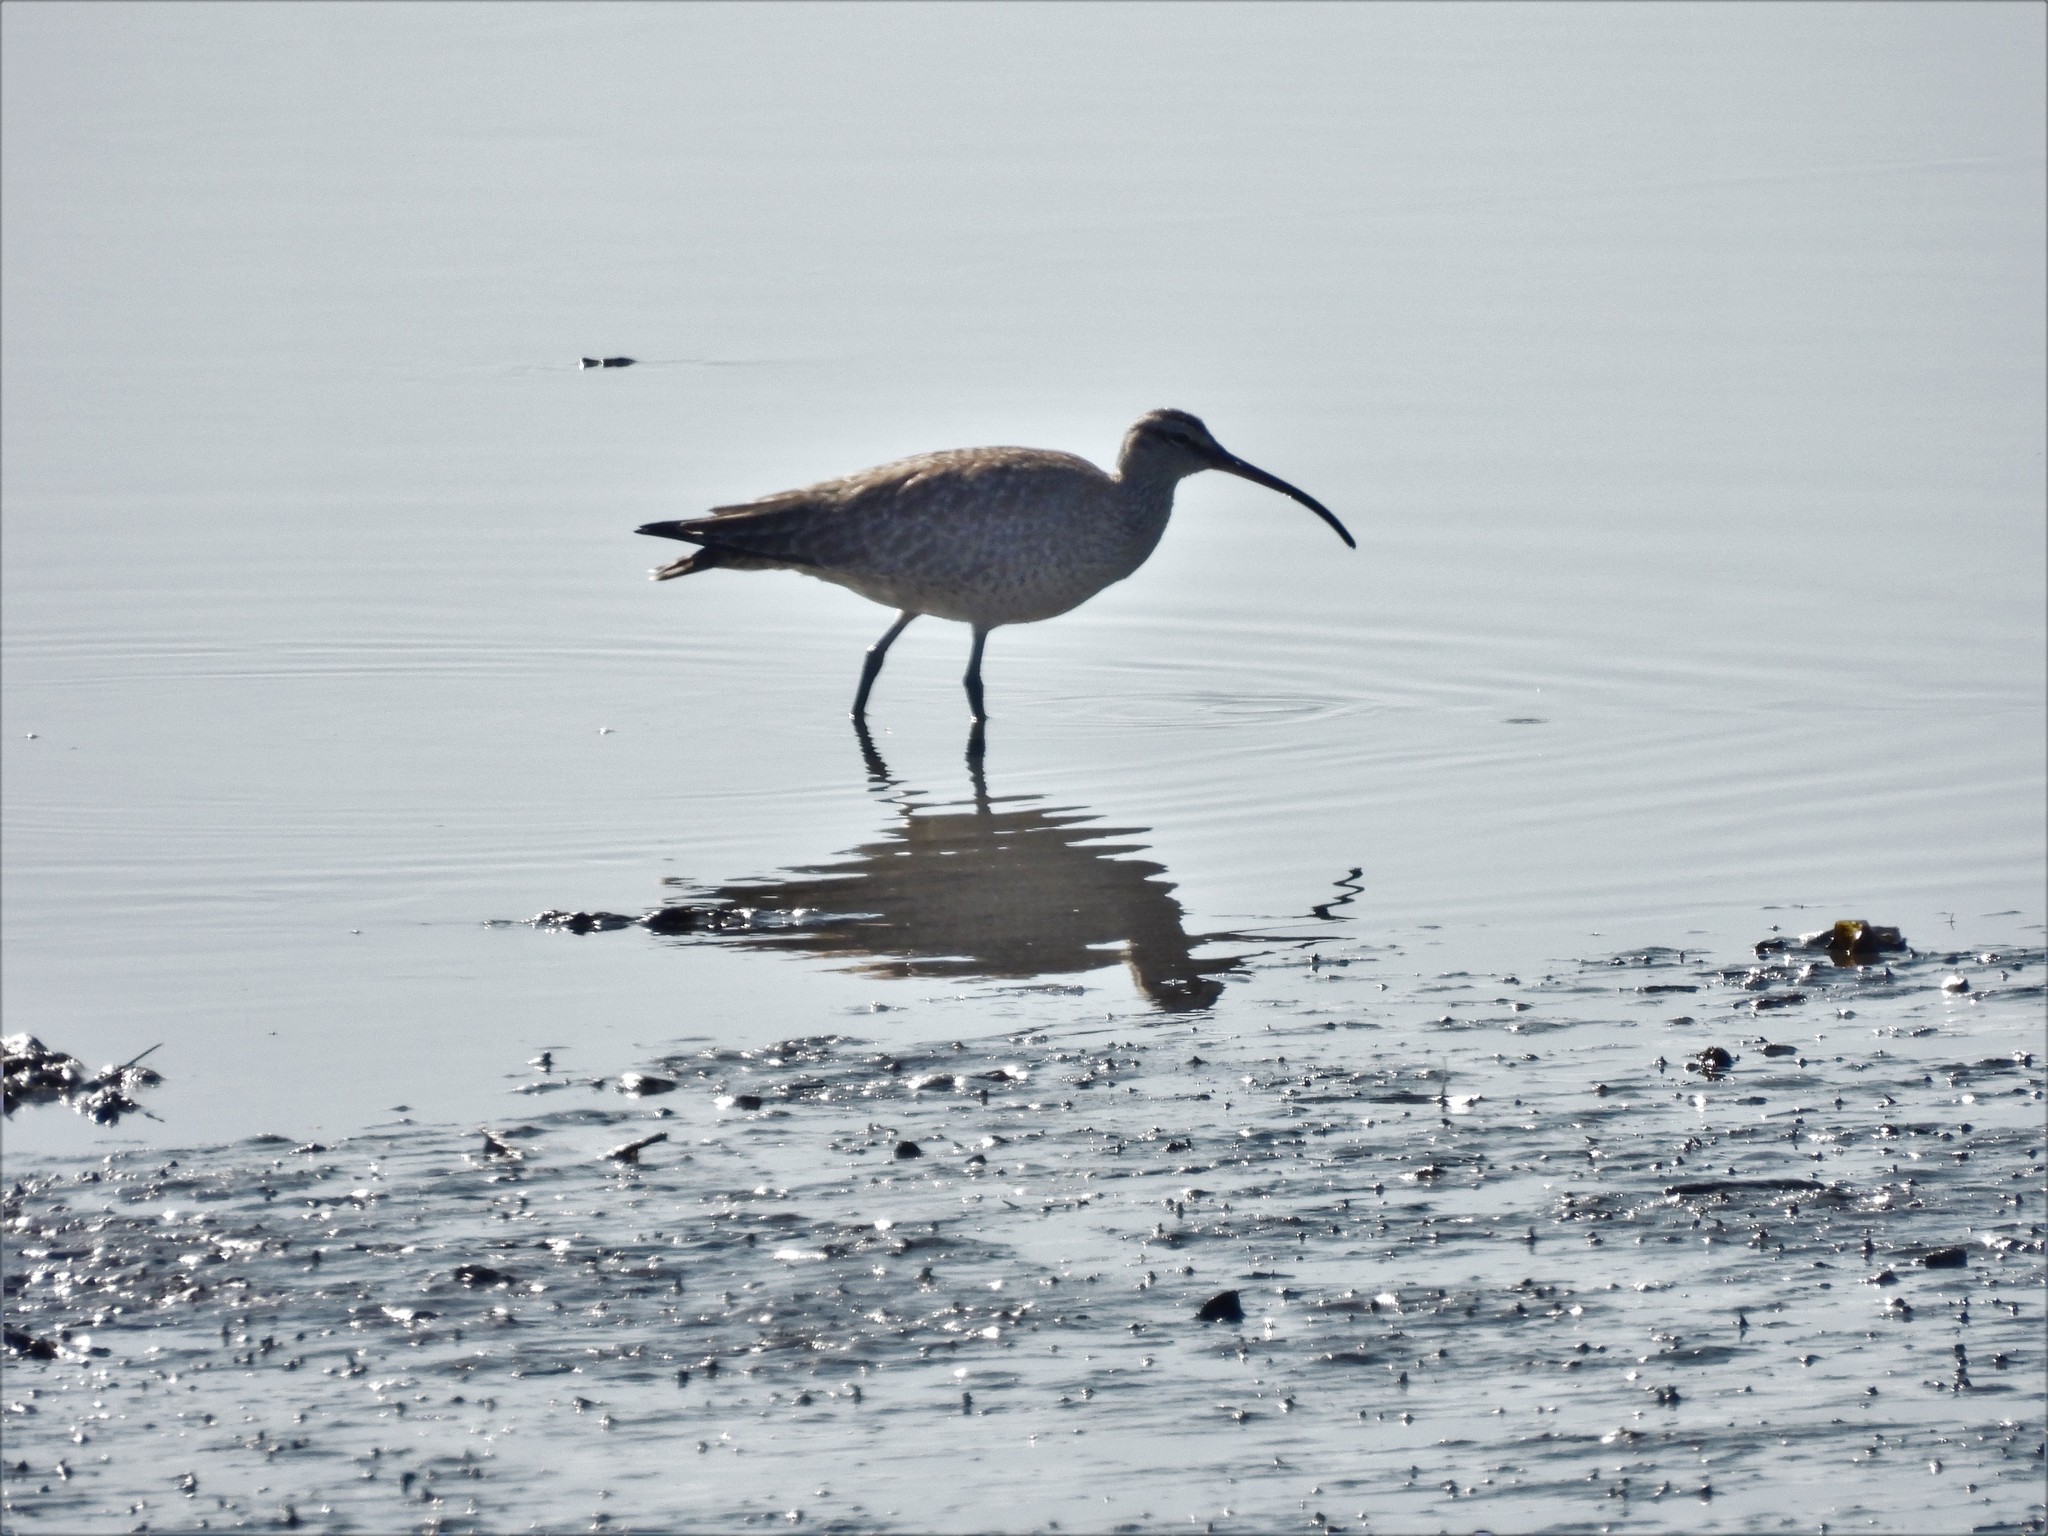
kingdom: Animalia
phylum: Chordata
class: Aves
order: Charadriiformes
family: Scolopacidae
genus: Numenius
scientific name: Numenius phaeopus
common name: Whimbrel
